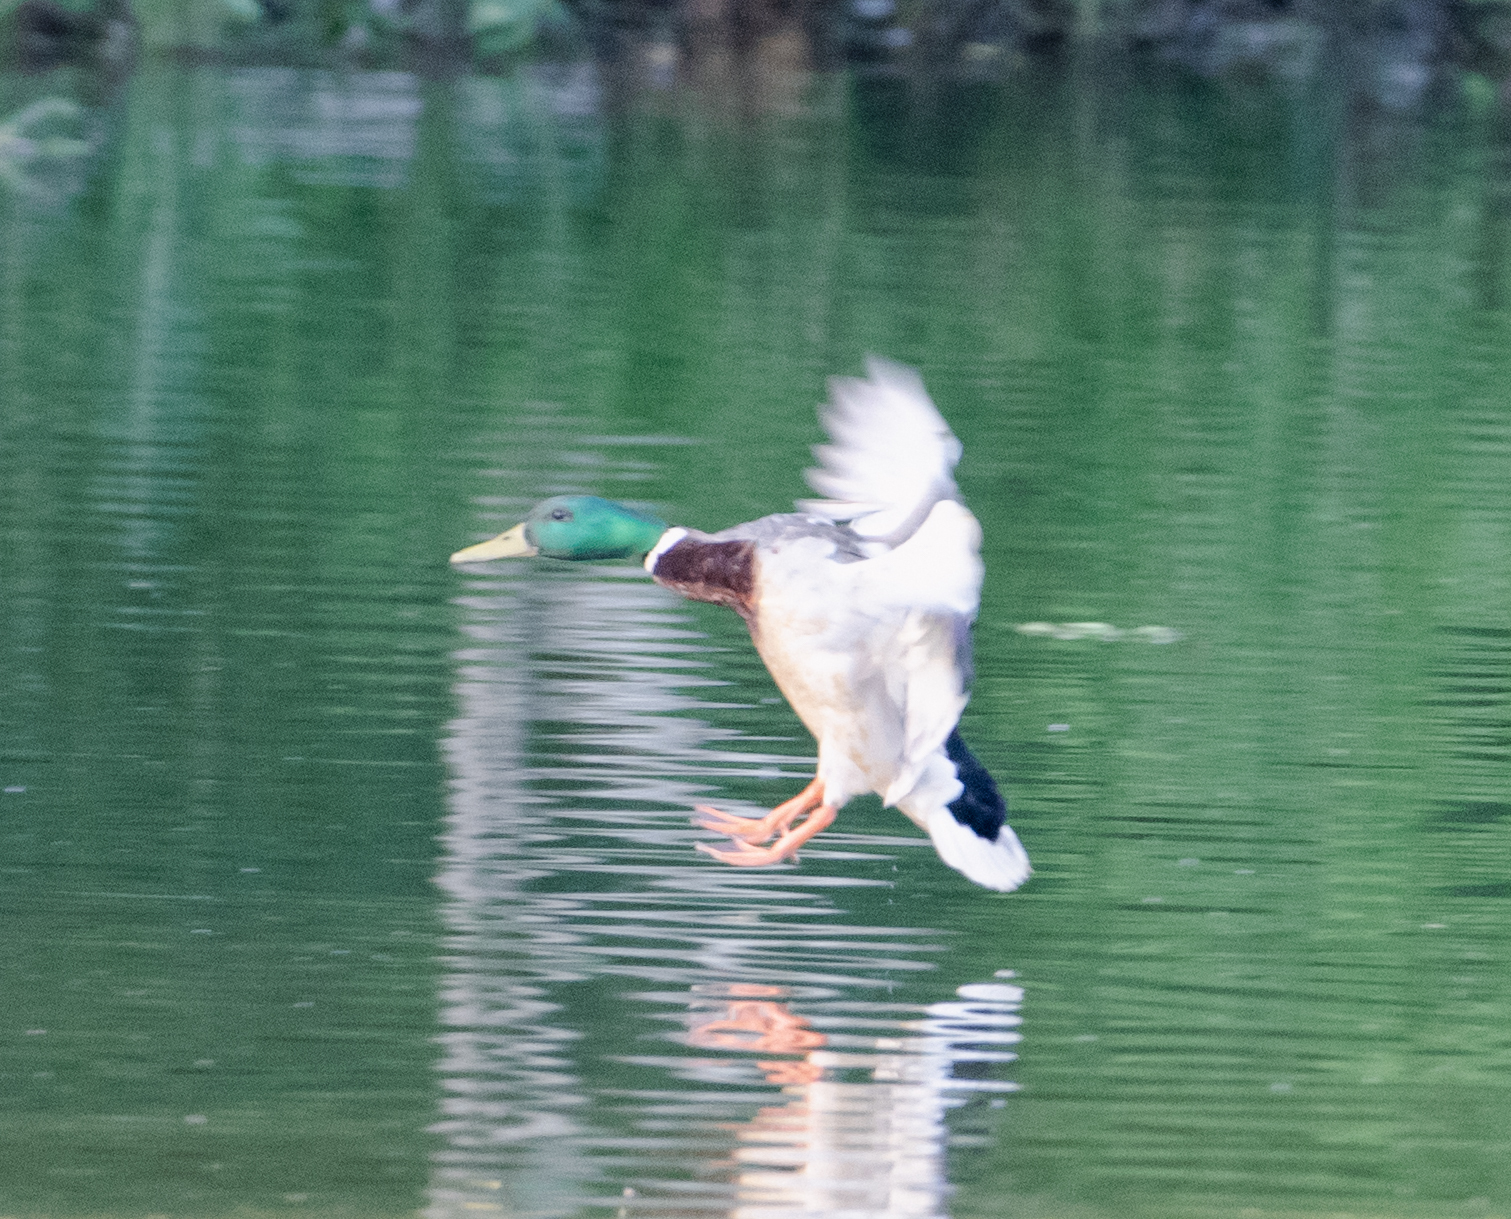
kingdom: Animalia
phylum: Chordata
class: Aves
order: Anseriformes
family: Anatidae
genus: Anas
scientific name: Anas platyrhynchos
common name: Mallard
